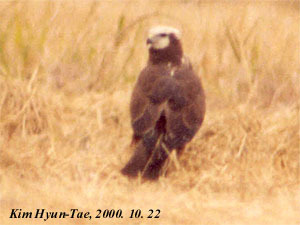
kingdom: Animalia
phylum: Chordata
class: Aves
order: Accipitriformes
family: Accipitridae
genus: Circus
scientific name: Circus spilonotus
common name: Eastern marsh-harrier
